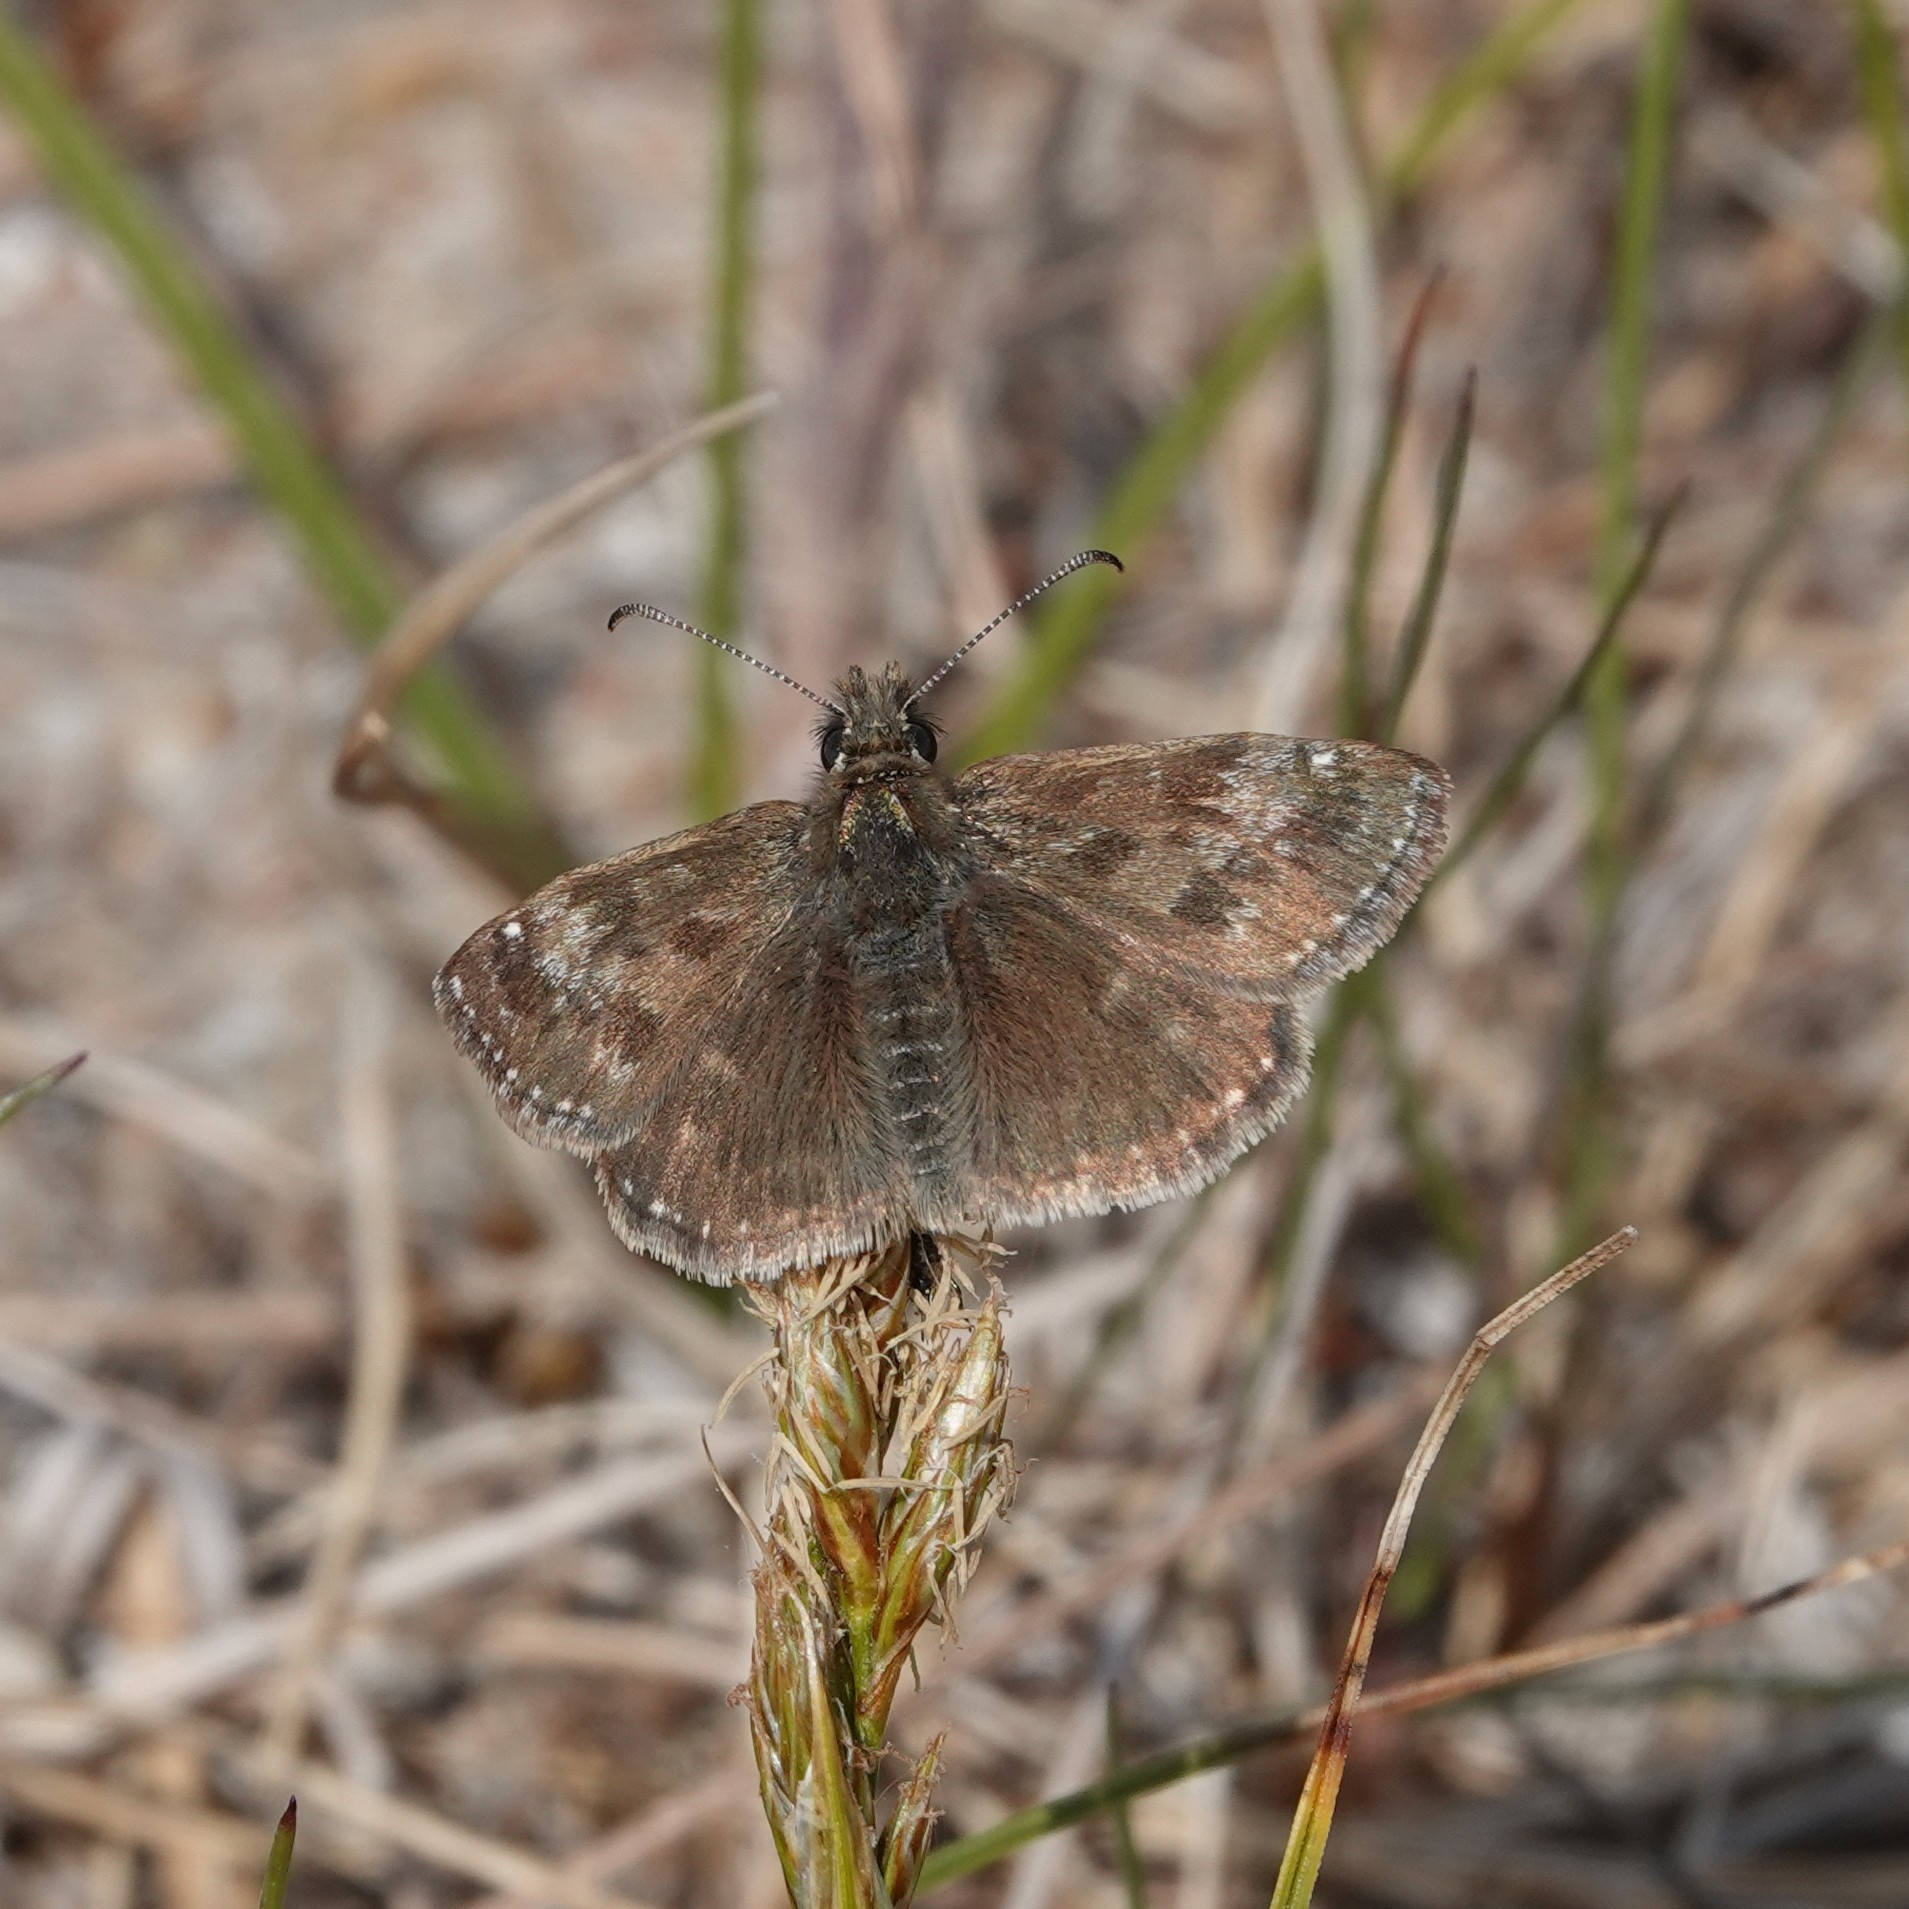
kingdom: Animalia
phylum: Arthropoda
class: Insecta
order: Lepidoptera
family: Hesperiidae
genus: Erynnis
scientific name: Erynnis tages
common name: Dingy skipper
